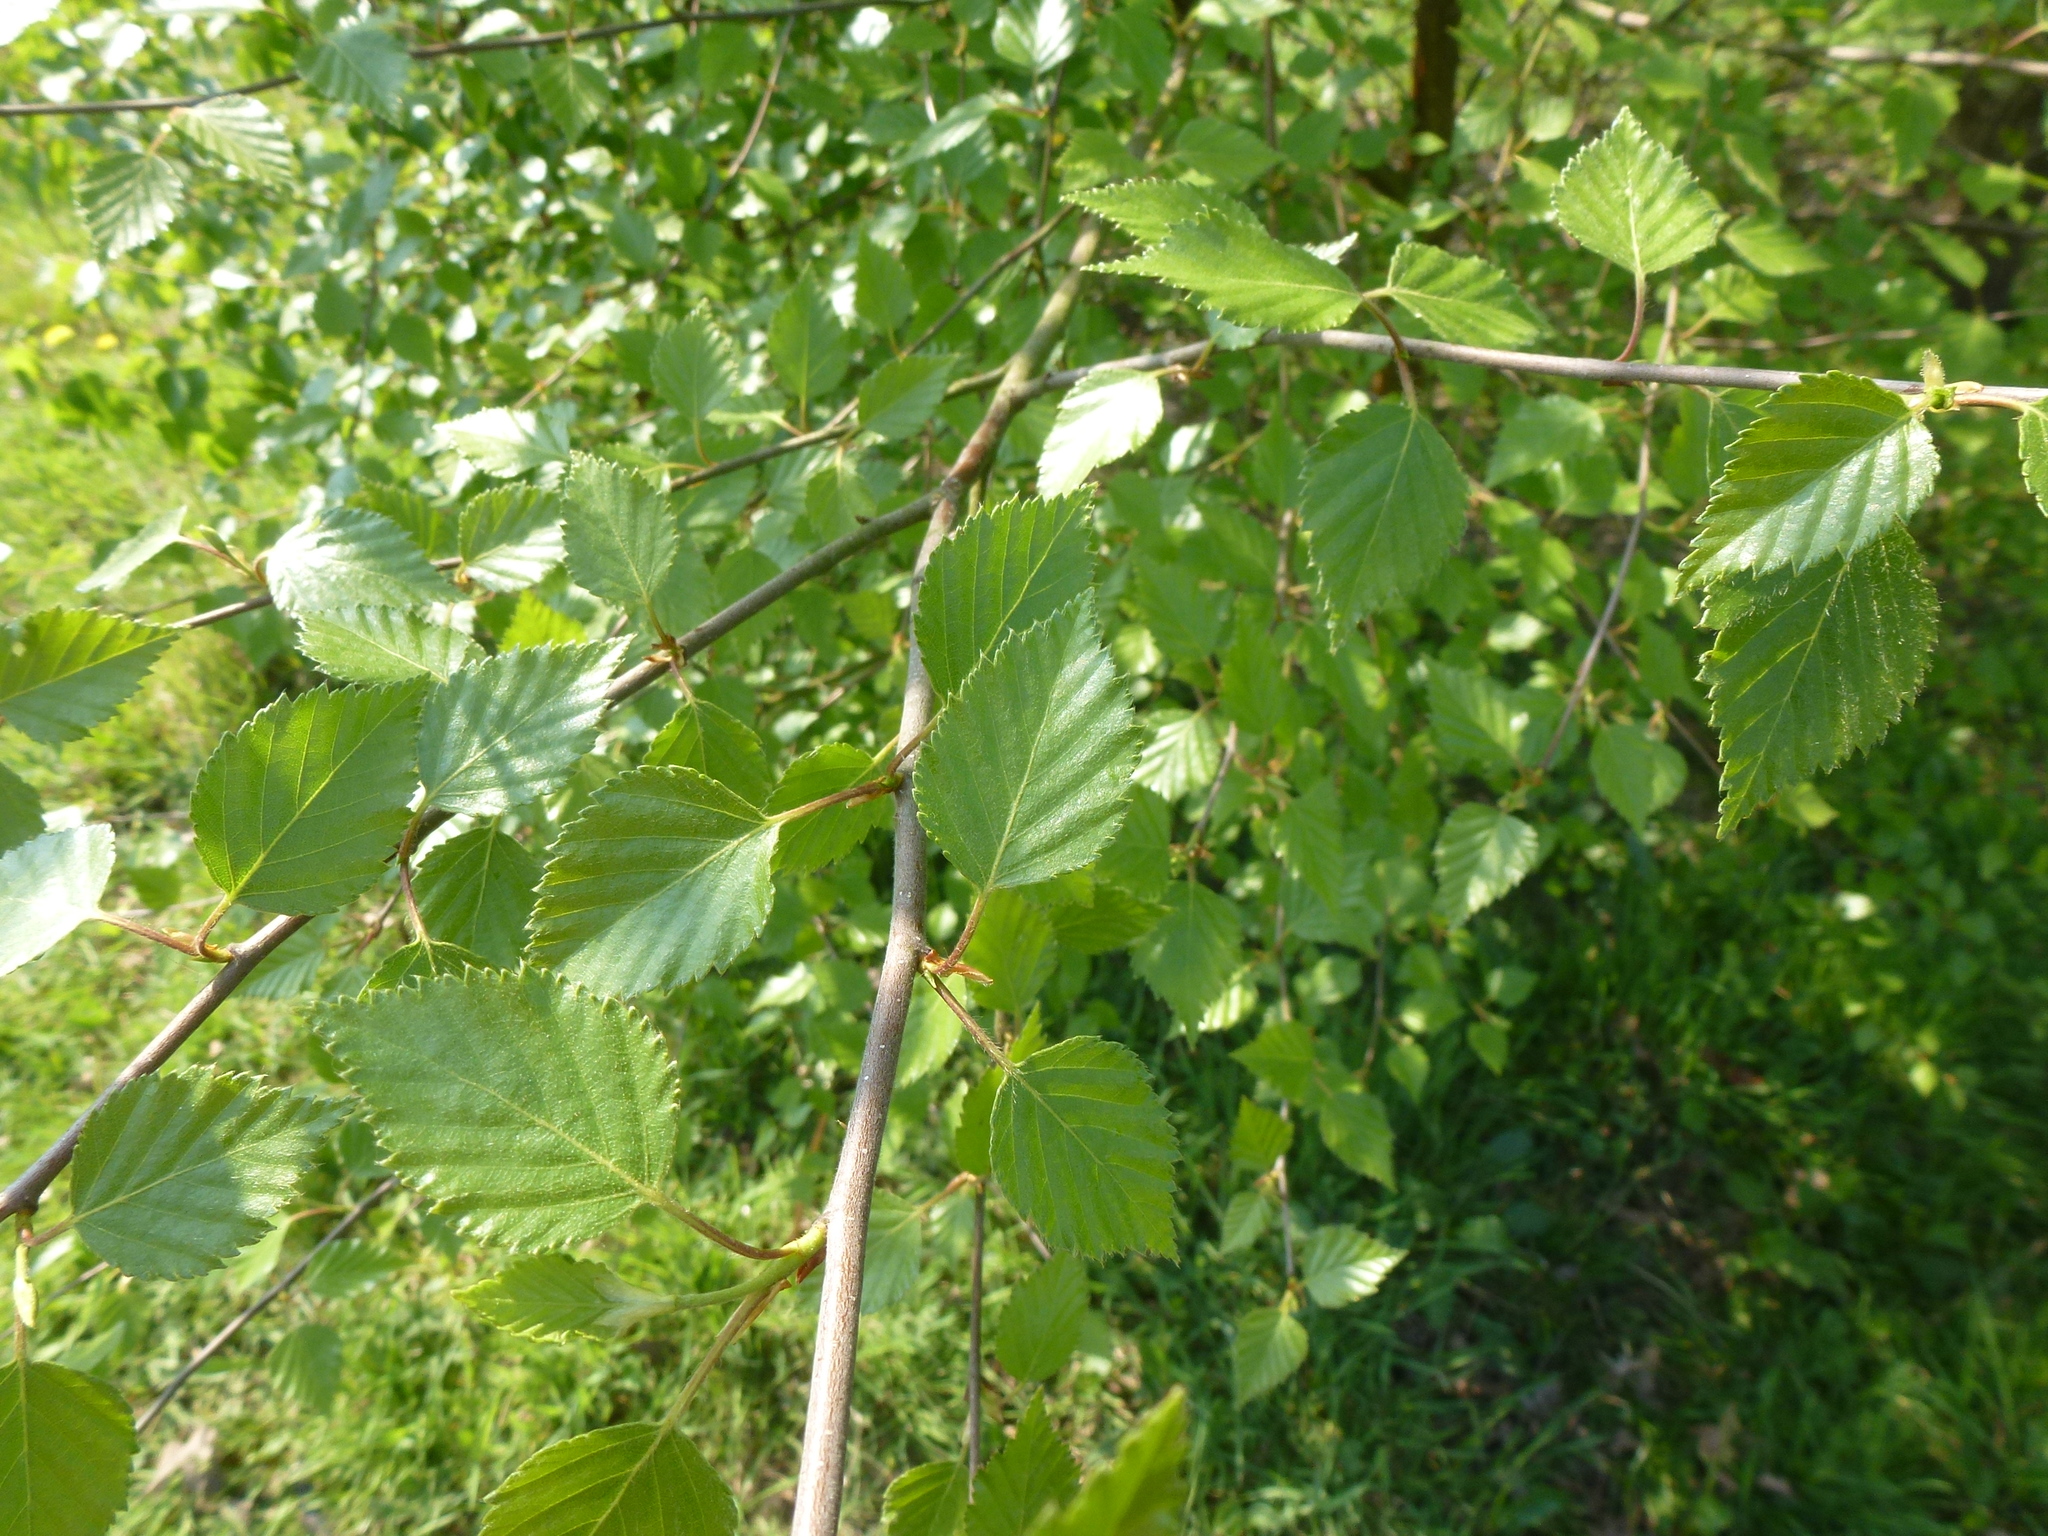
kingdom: Plantae
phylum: Tracheophyta
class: Magnoliopsida
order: Fagales
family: Betulaceae
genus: Betula
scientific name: Betula pubescens
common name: Downy birch
